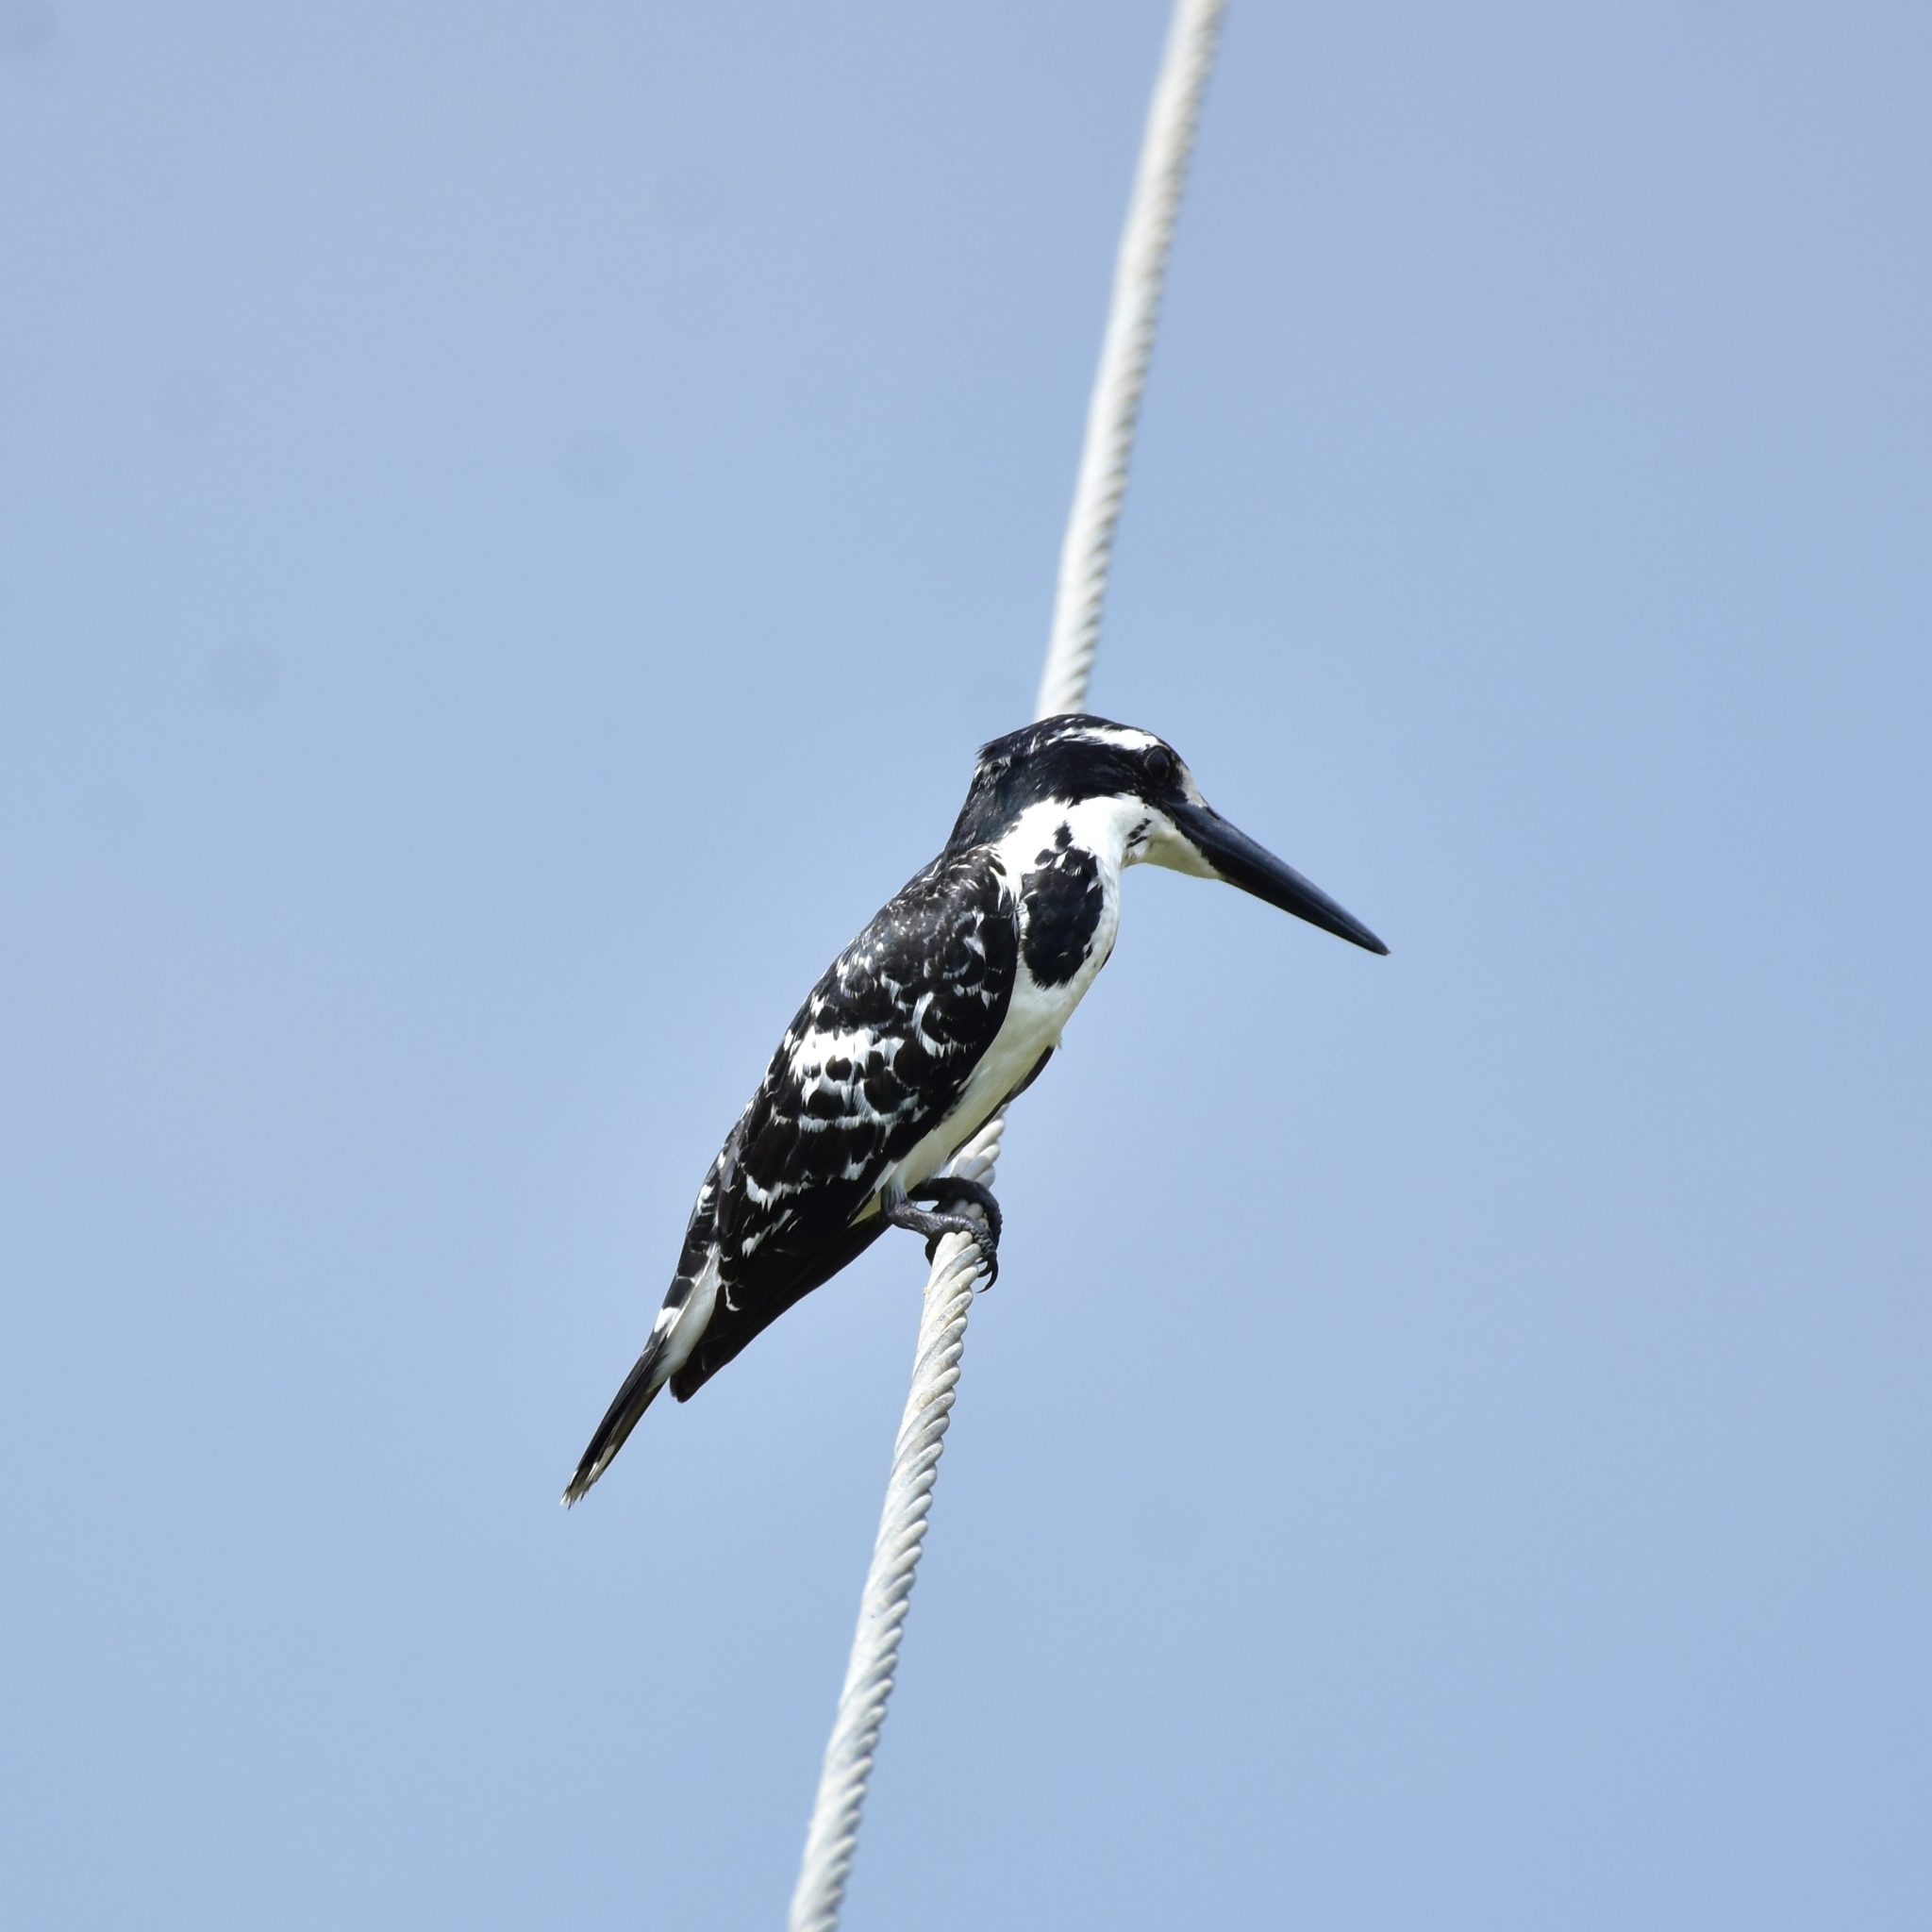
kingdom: Animalia
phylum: Chordata
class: Aves
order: Coraciiformes
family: Alcedinidae
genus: Ceryle
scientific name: Ceryle rudis
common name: Pied kingfisher
